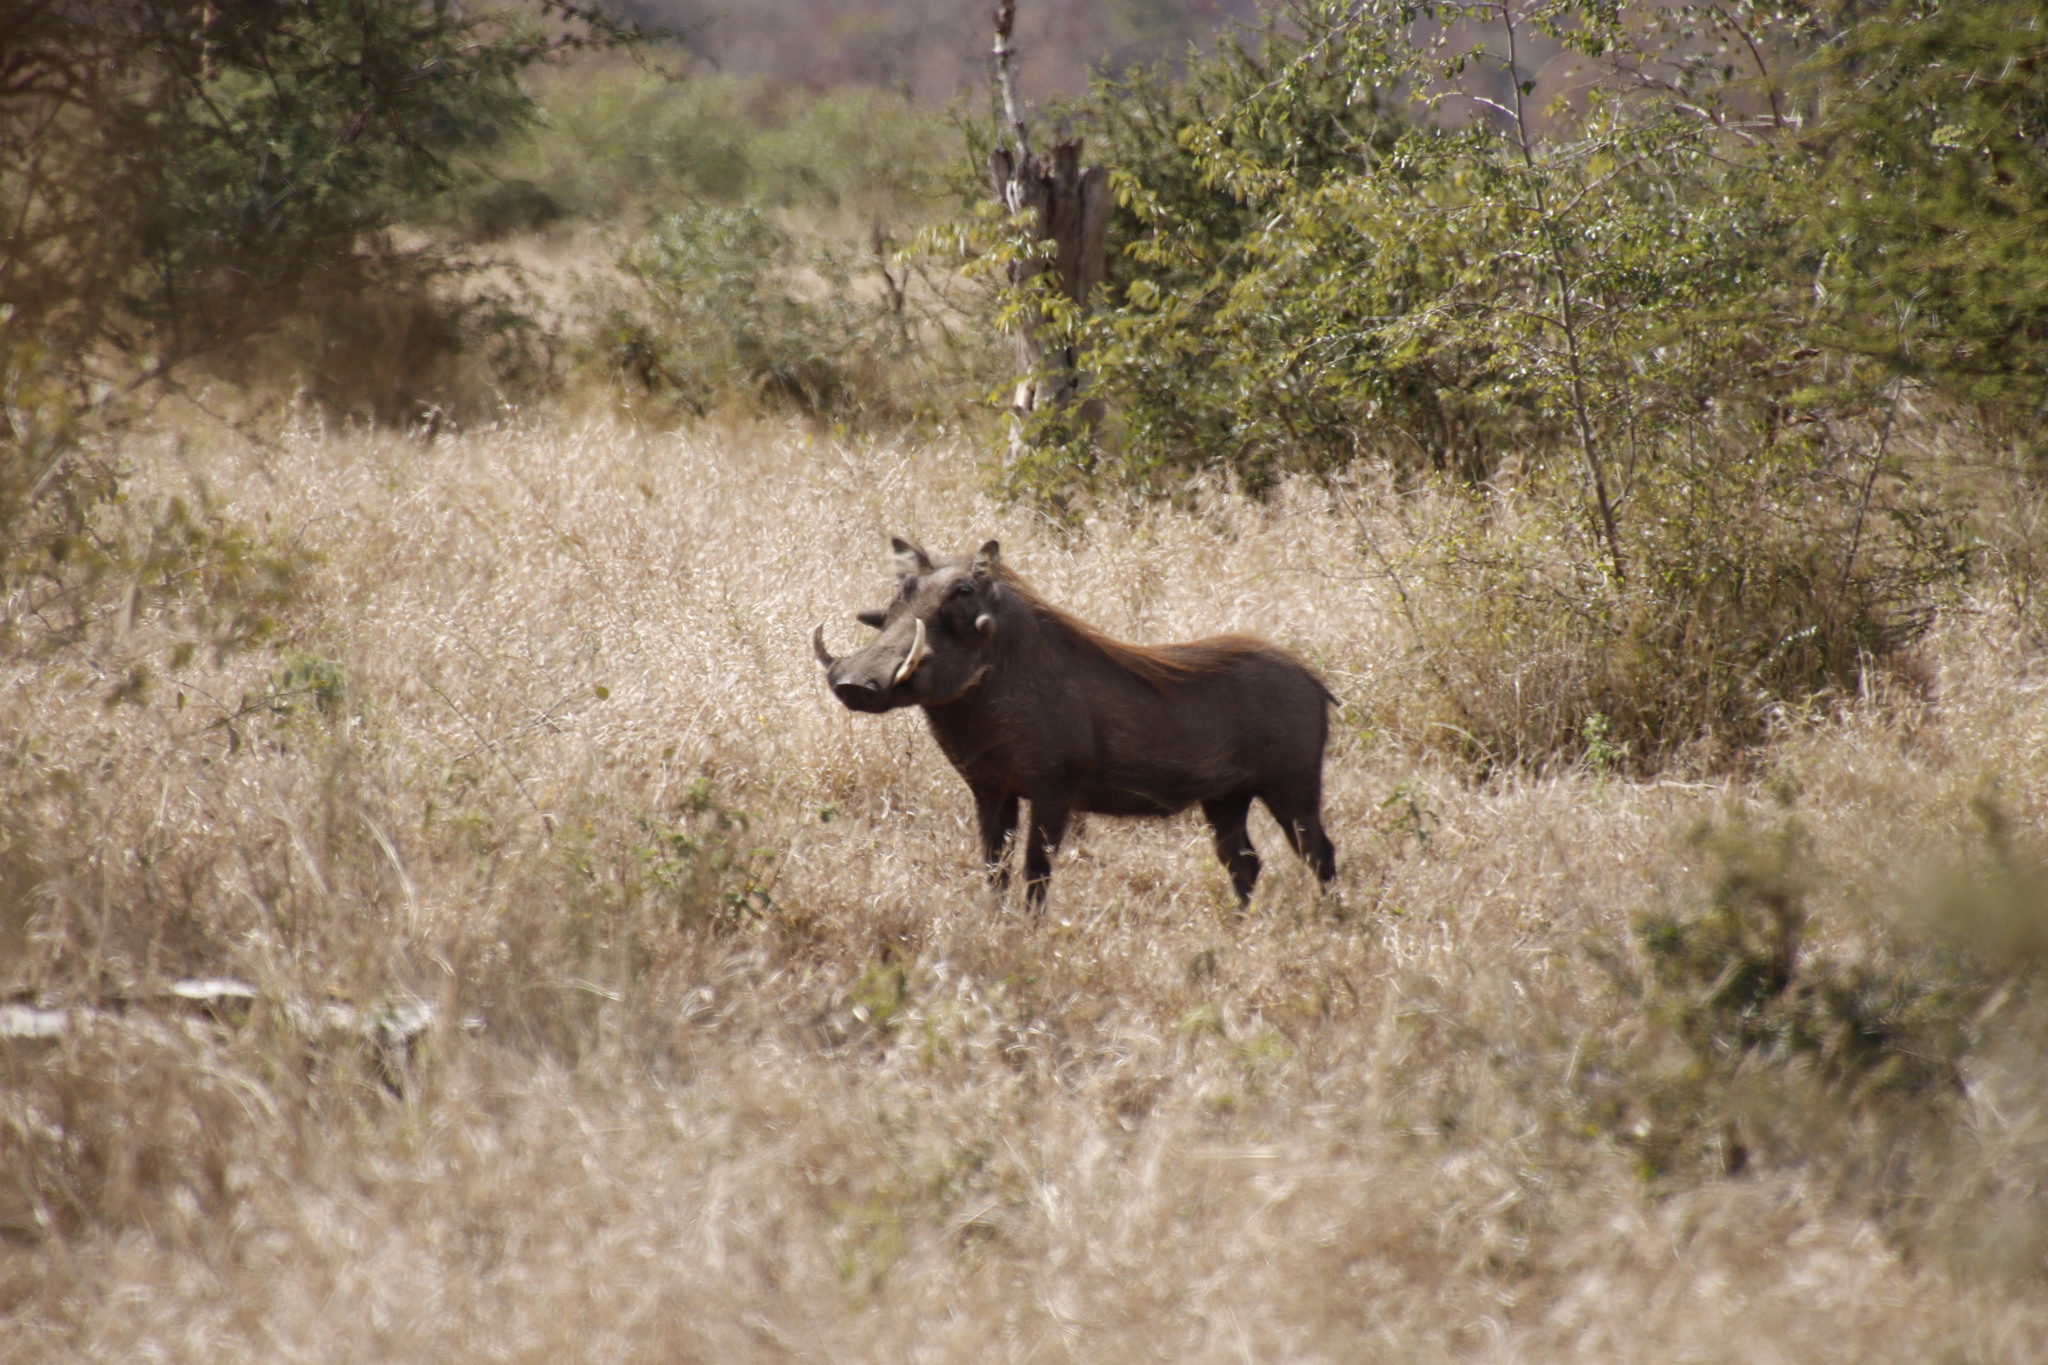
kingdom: Animalia
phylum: Chordata
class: Mammalia
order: Artiodactyla
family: Suidae
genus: Phacochoerus
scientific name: Phacochoerus africanus
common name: Common warthog
